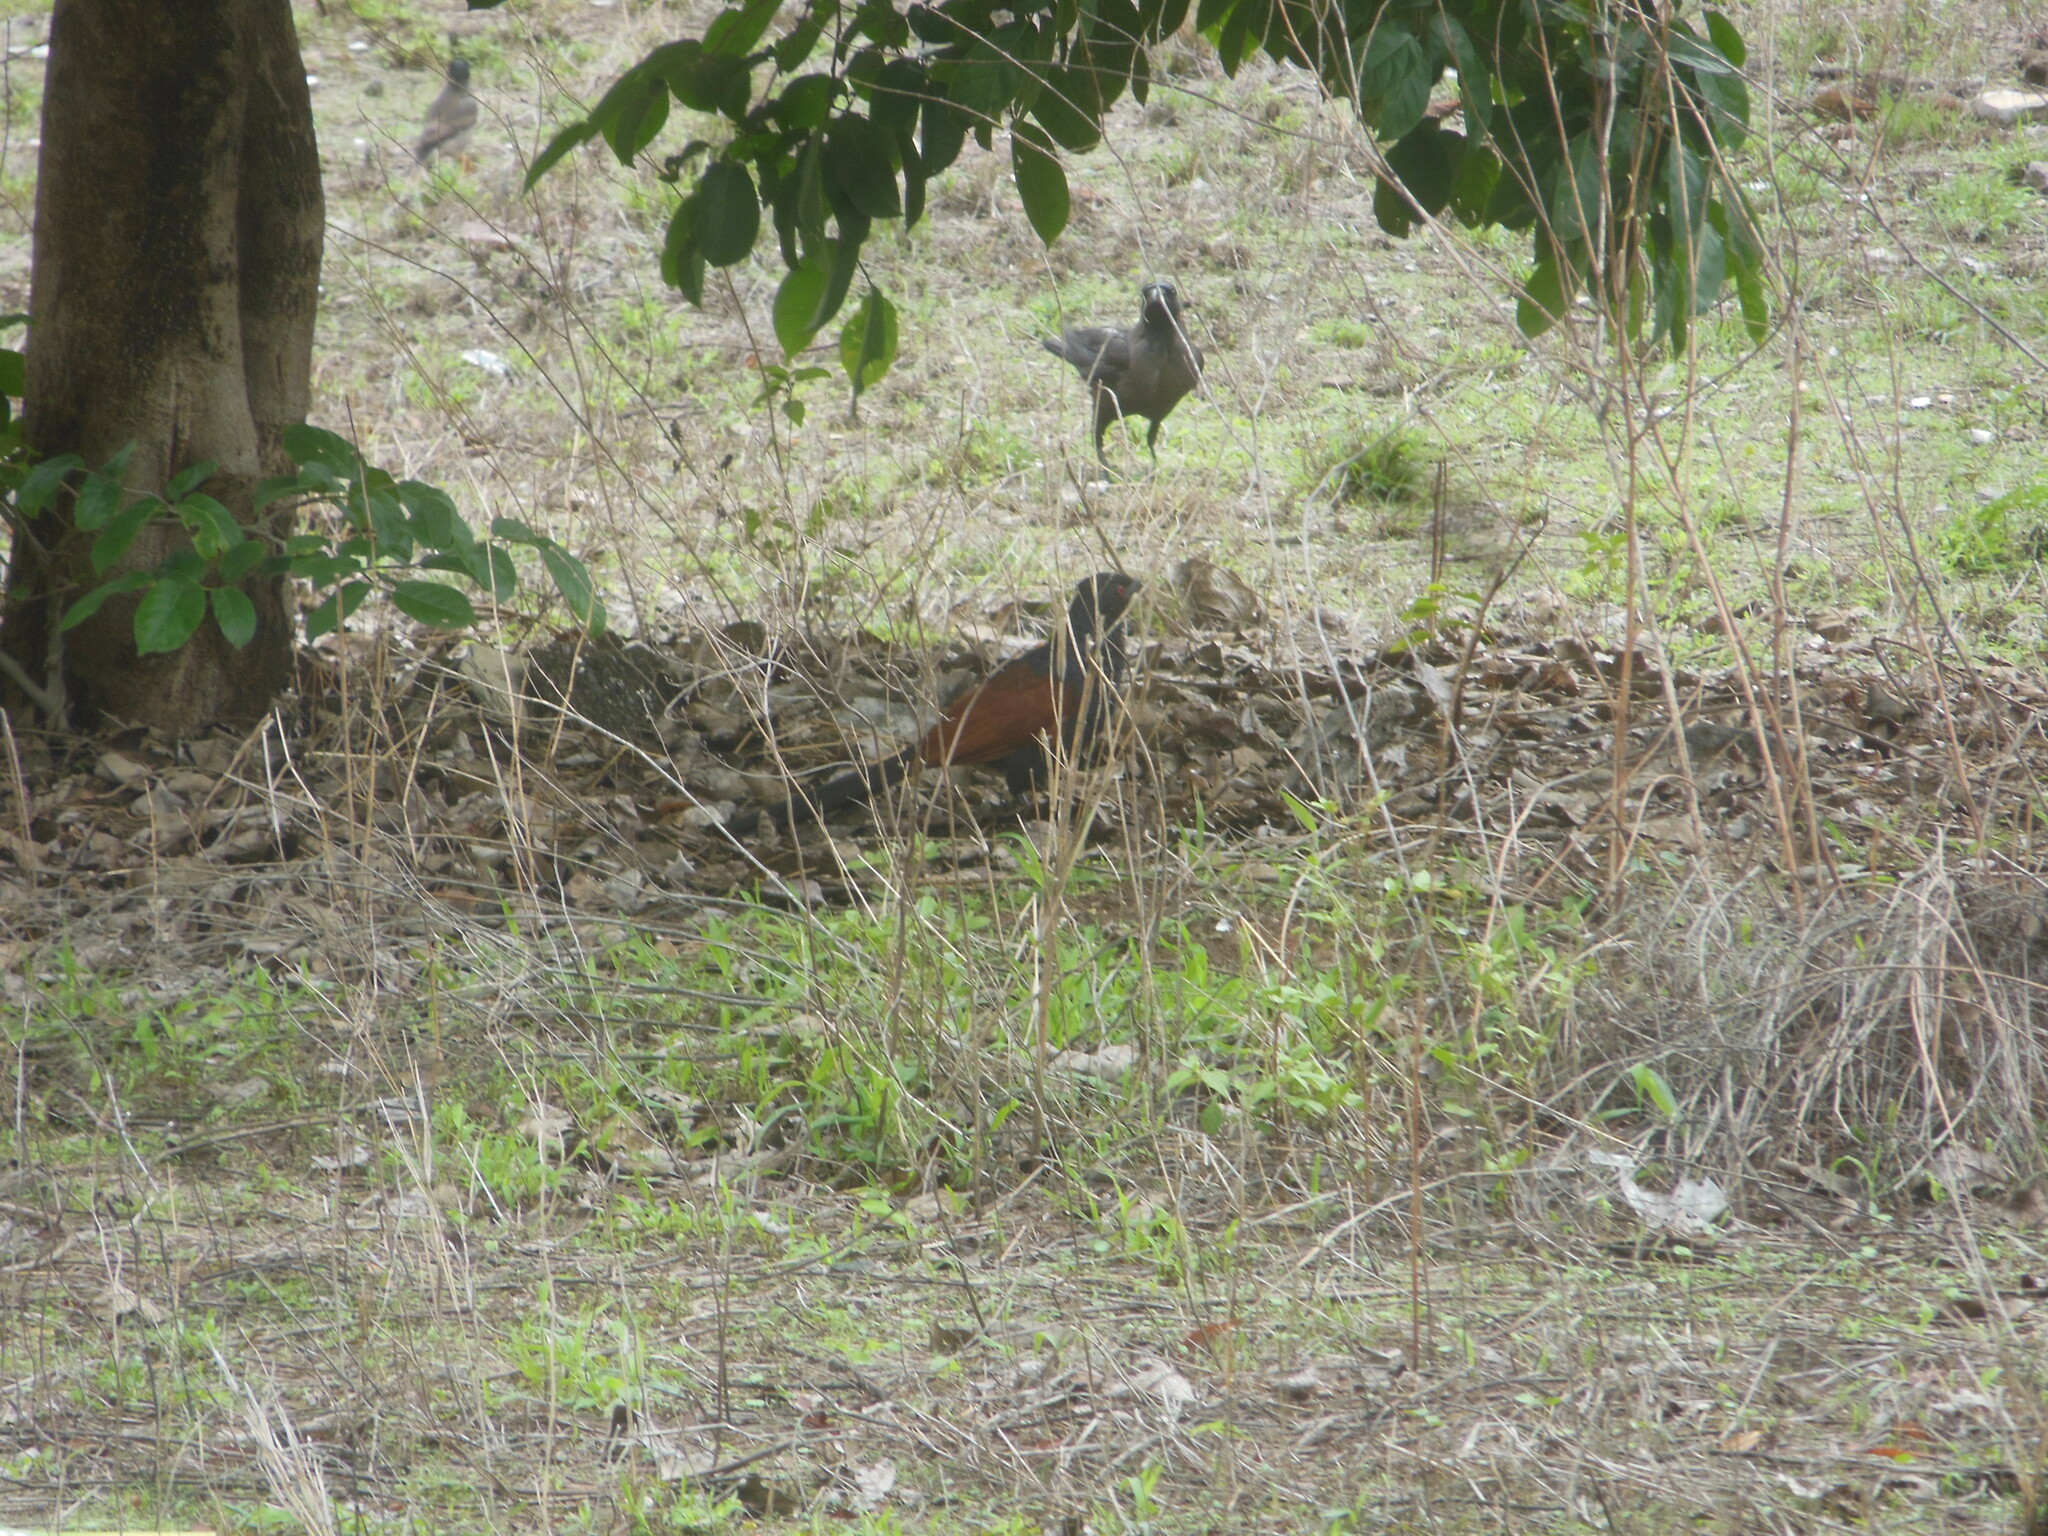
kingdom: Animalia
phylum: Chordata
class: Aves
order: Cuculiformes
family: Cuculidae
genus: Centropus
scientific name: Centropus sinensis
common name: Greater coucal
